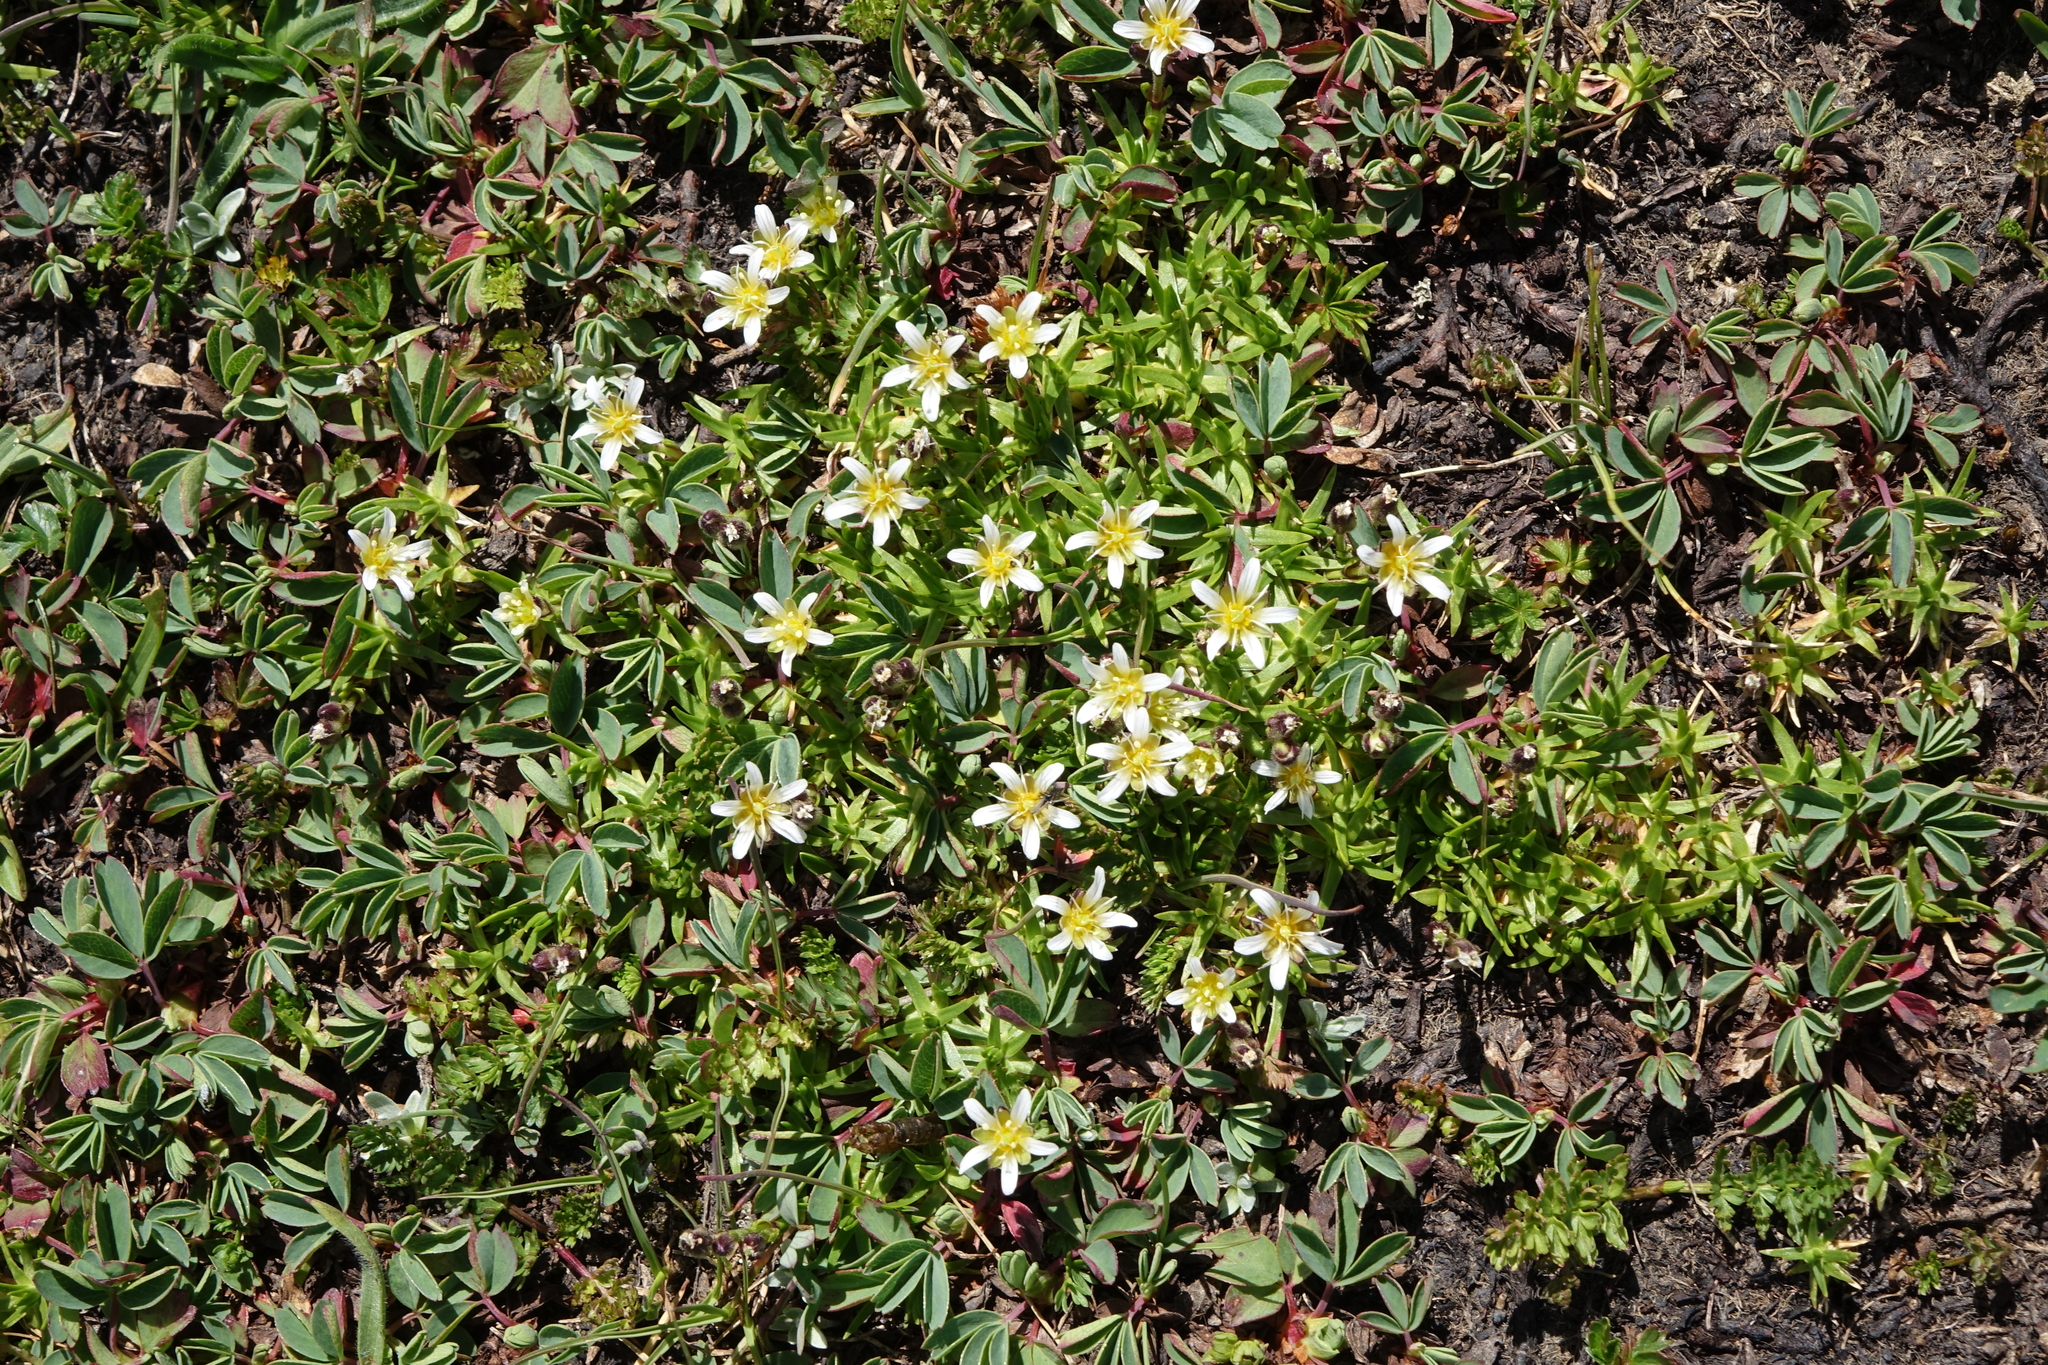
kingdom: Plantae
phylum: Tracheophyta
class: Magnoliopsida
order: Caryophyllales
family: Caryophyllaceae
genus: Pseudocherleria
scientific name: Pseudocherleria aizoides
